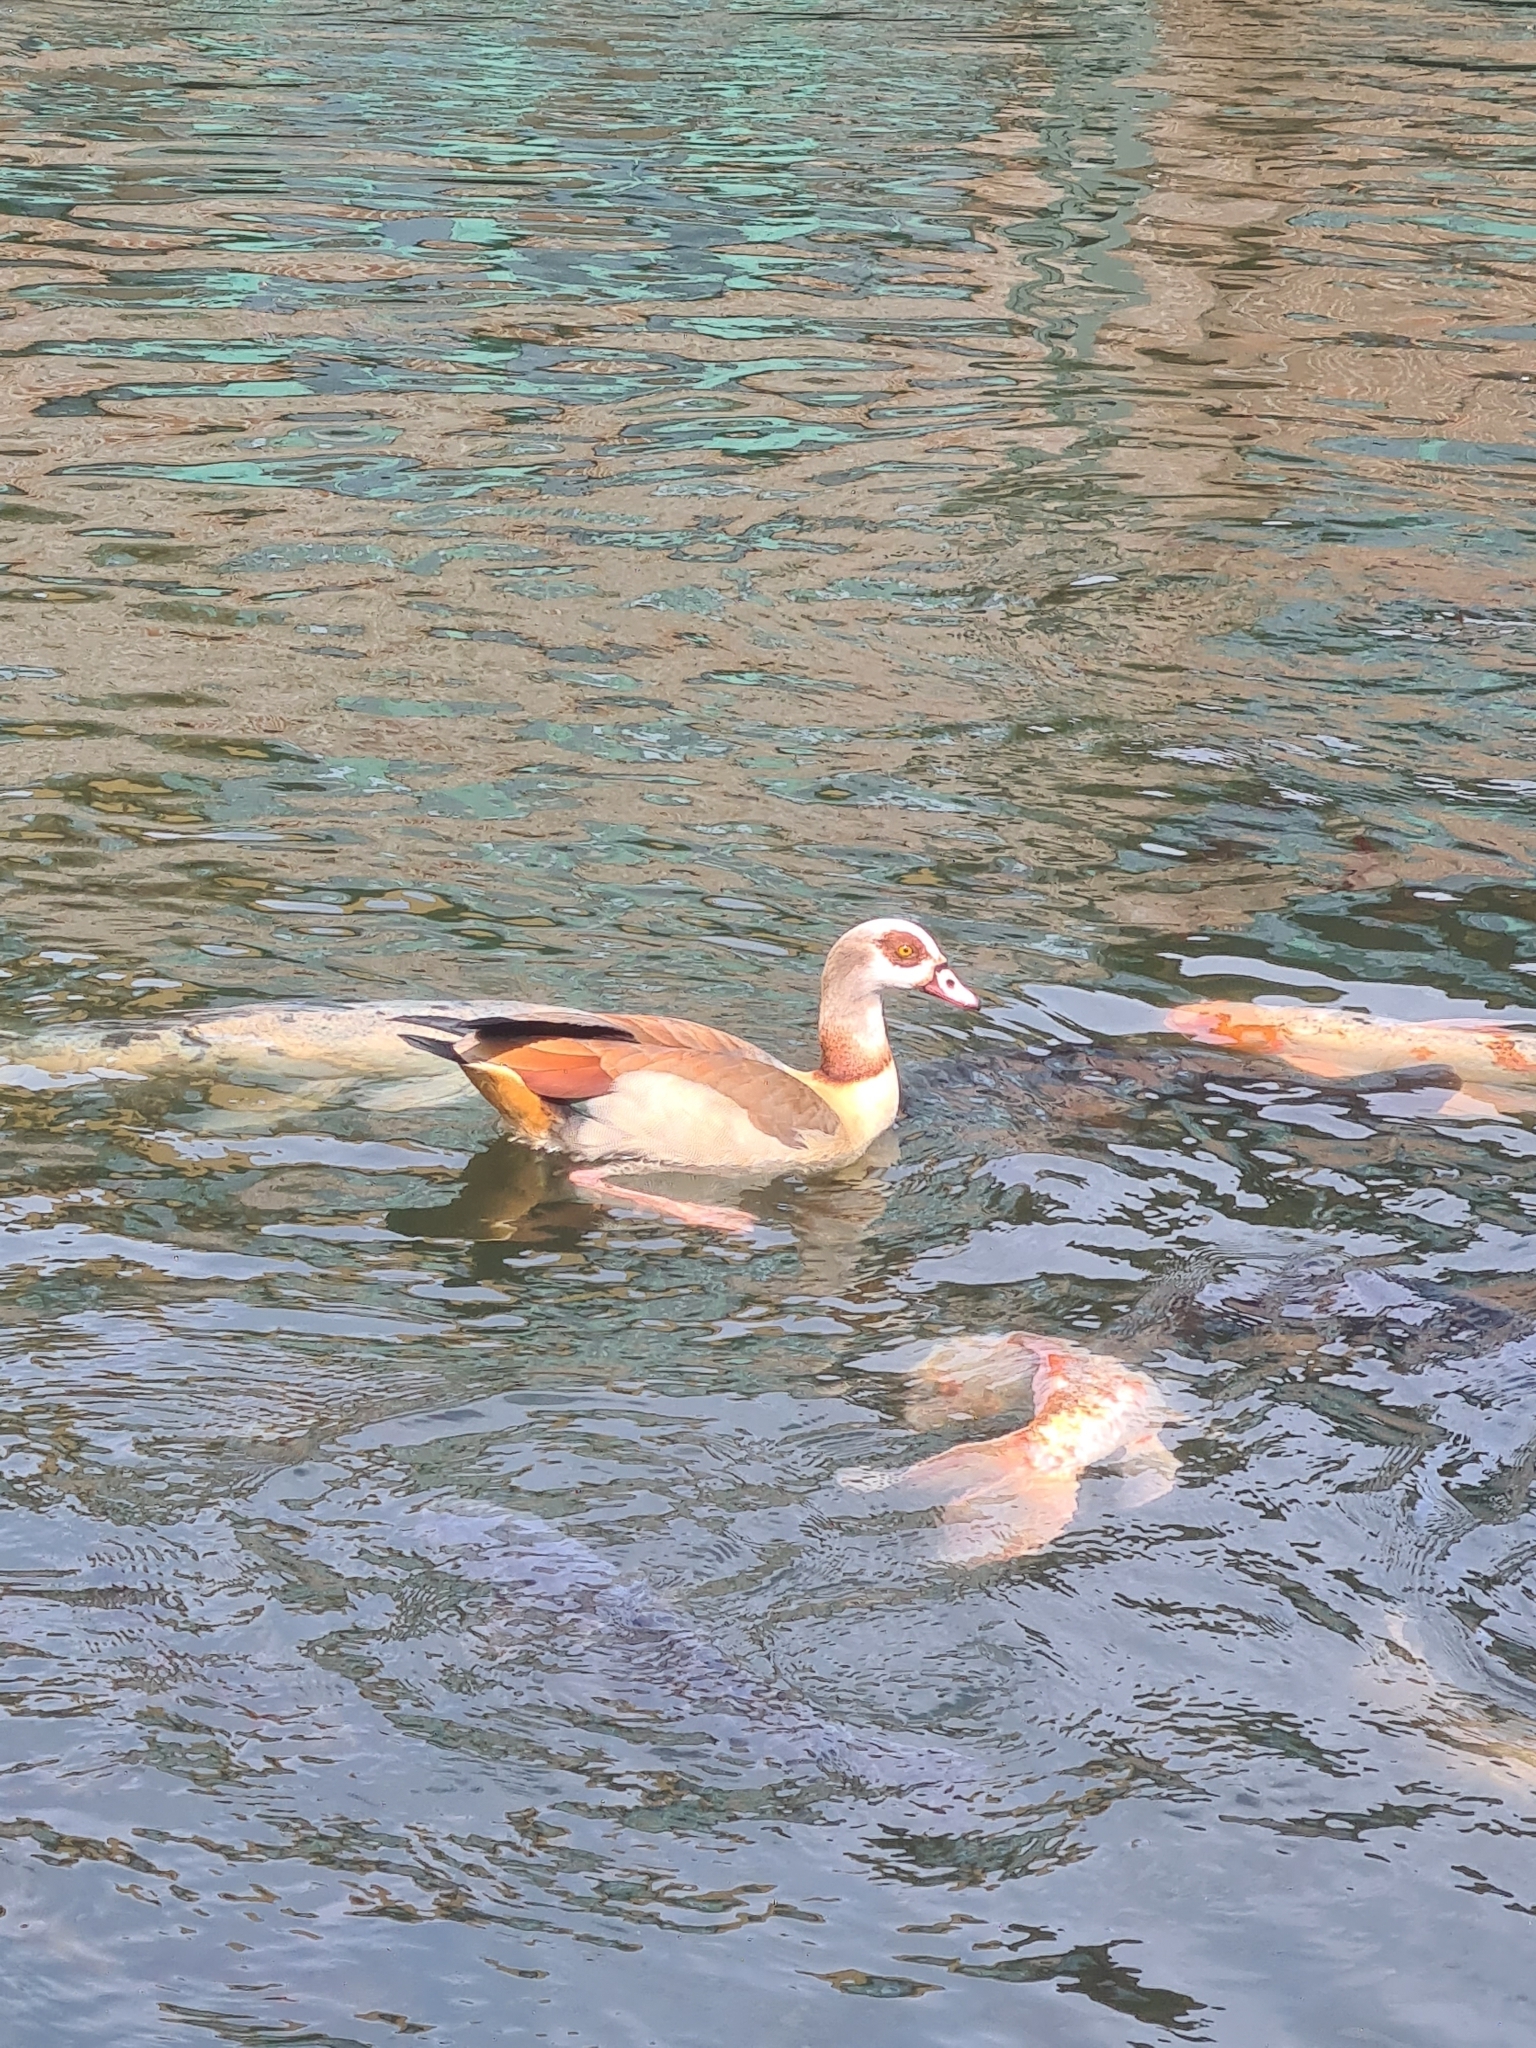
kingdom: Animalia
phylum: Chordata
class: Aves
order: Anseriformes
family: Anatidae
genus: Alopochen
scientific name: Alopochen aegyptiaca
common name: Egyptian goose
